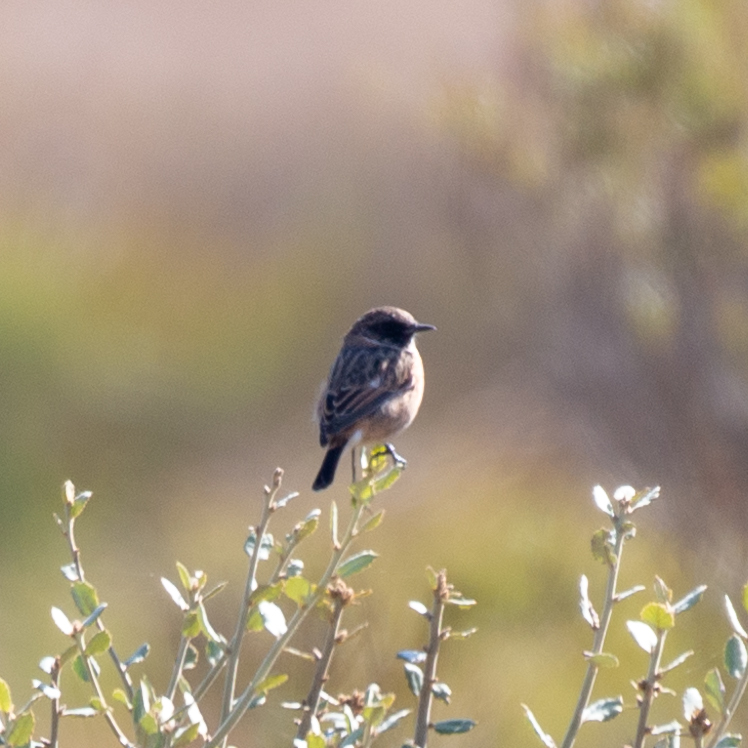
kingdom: Animalia
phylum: Chordata
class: Aves
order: Passeriformes
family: Muscicapidae
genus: Saxicola
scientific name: Saxicola rubicola
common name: European stonechat
